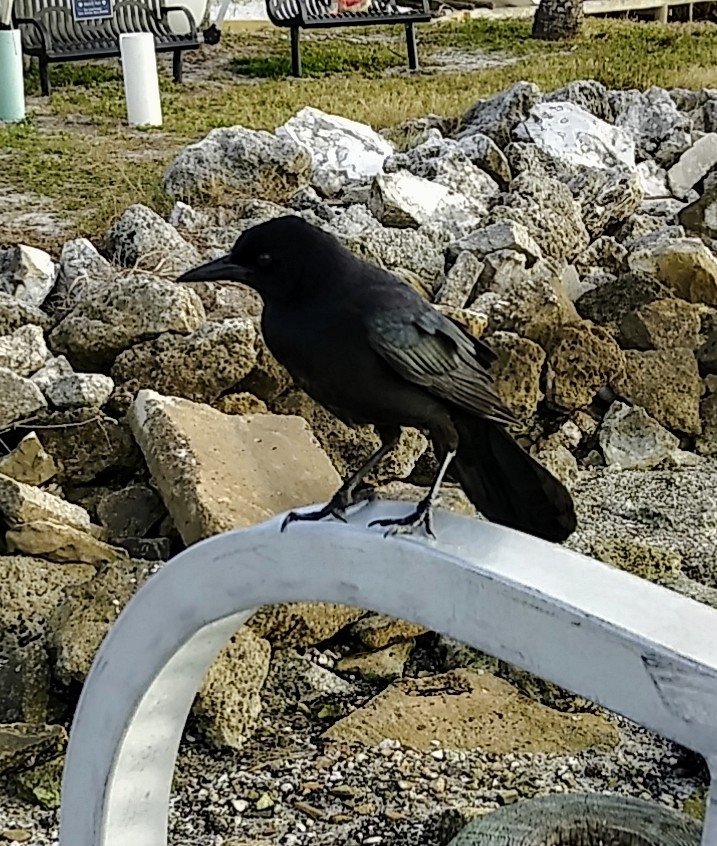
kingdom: Animalia
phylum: Chordata
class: Aves
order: Passeriformes
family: Icteridae
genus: Quiscalus
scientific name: Quiscalus major
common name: Boat-tailed grackle
